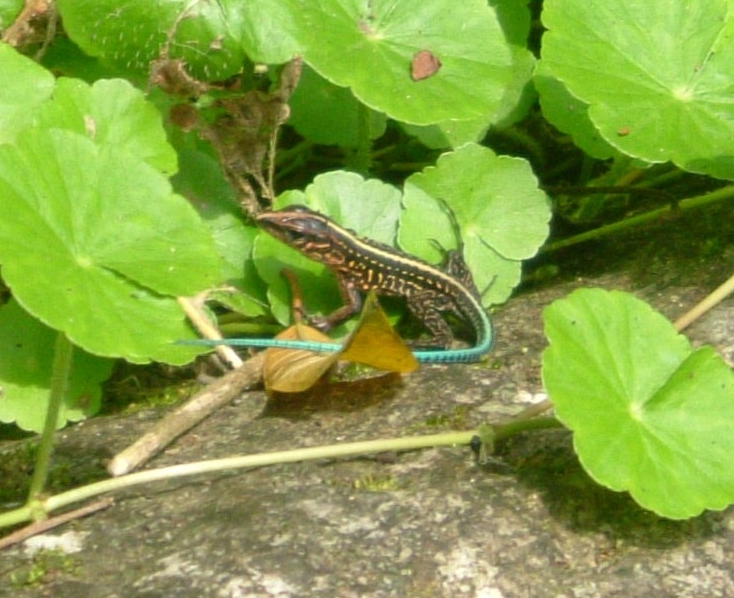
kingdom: Animalia
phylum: Chordata
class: Squamata
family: Teiidae
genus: Holcosus
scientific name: Holcosus festivus
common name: Middle american ameiva
